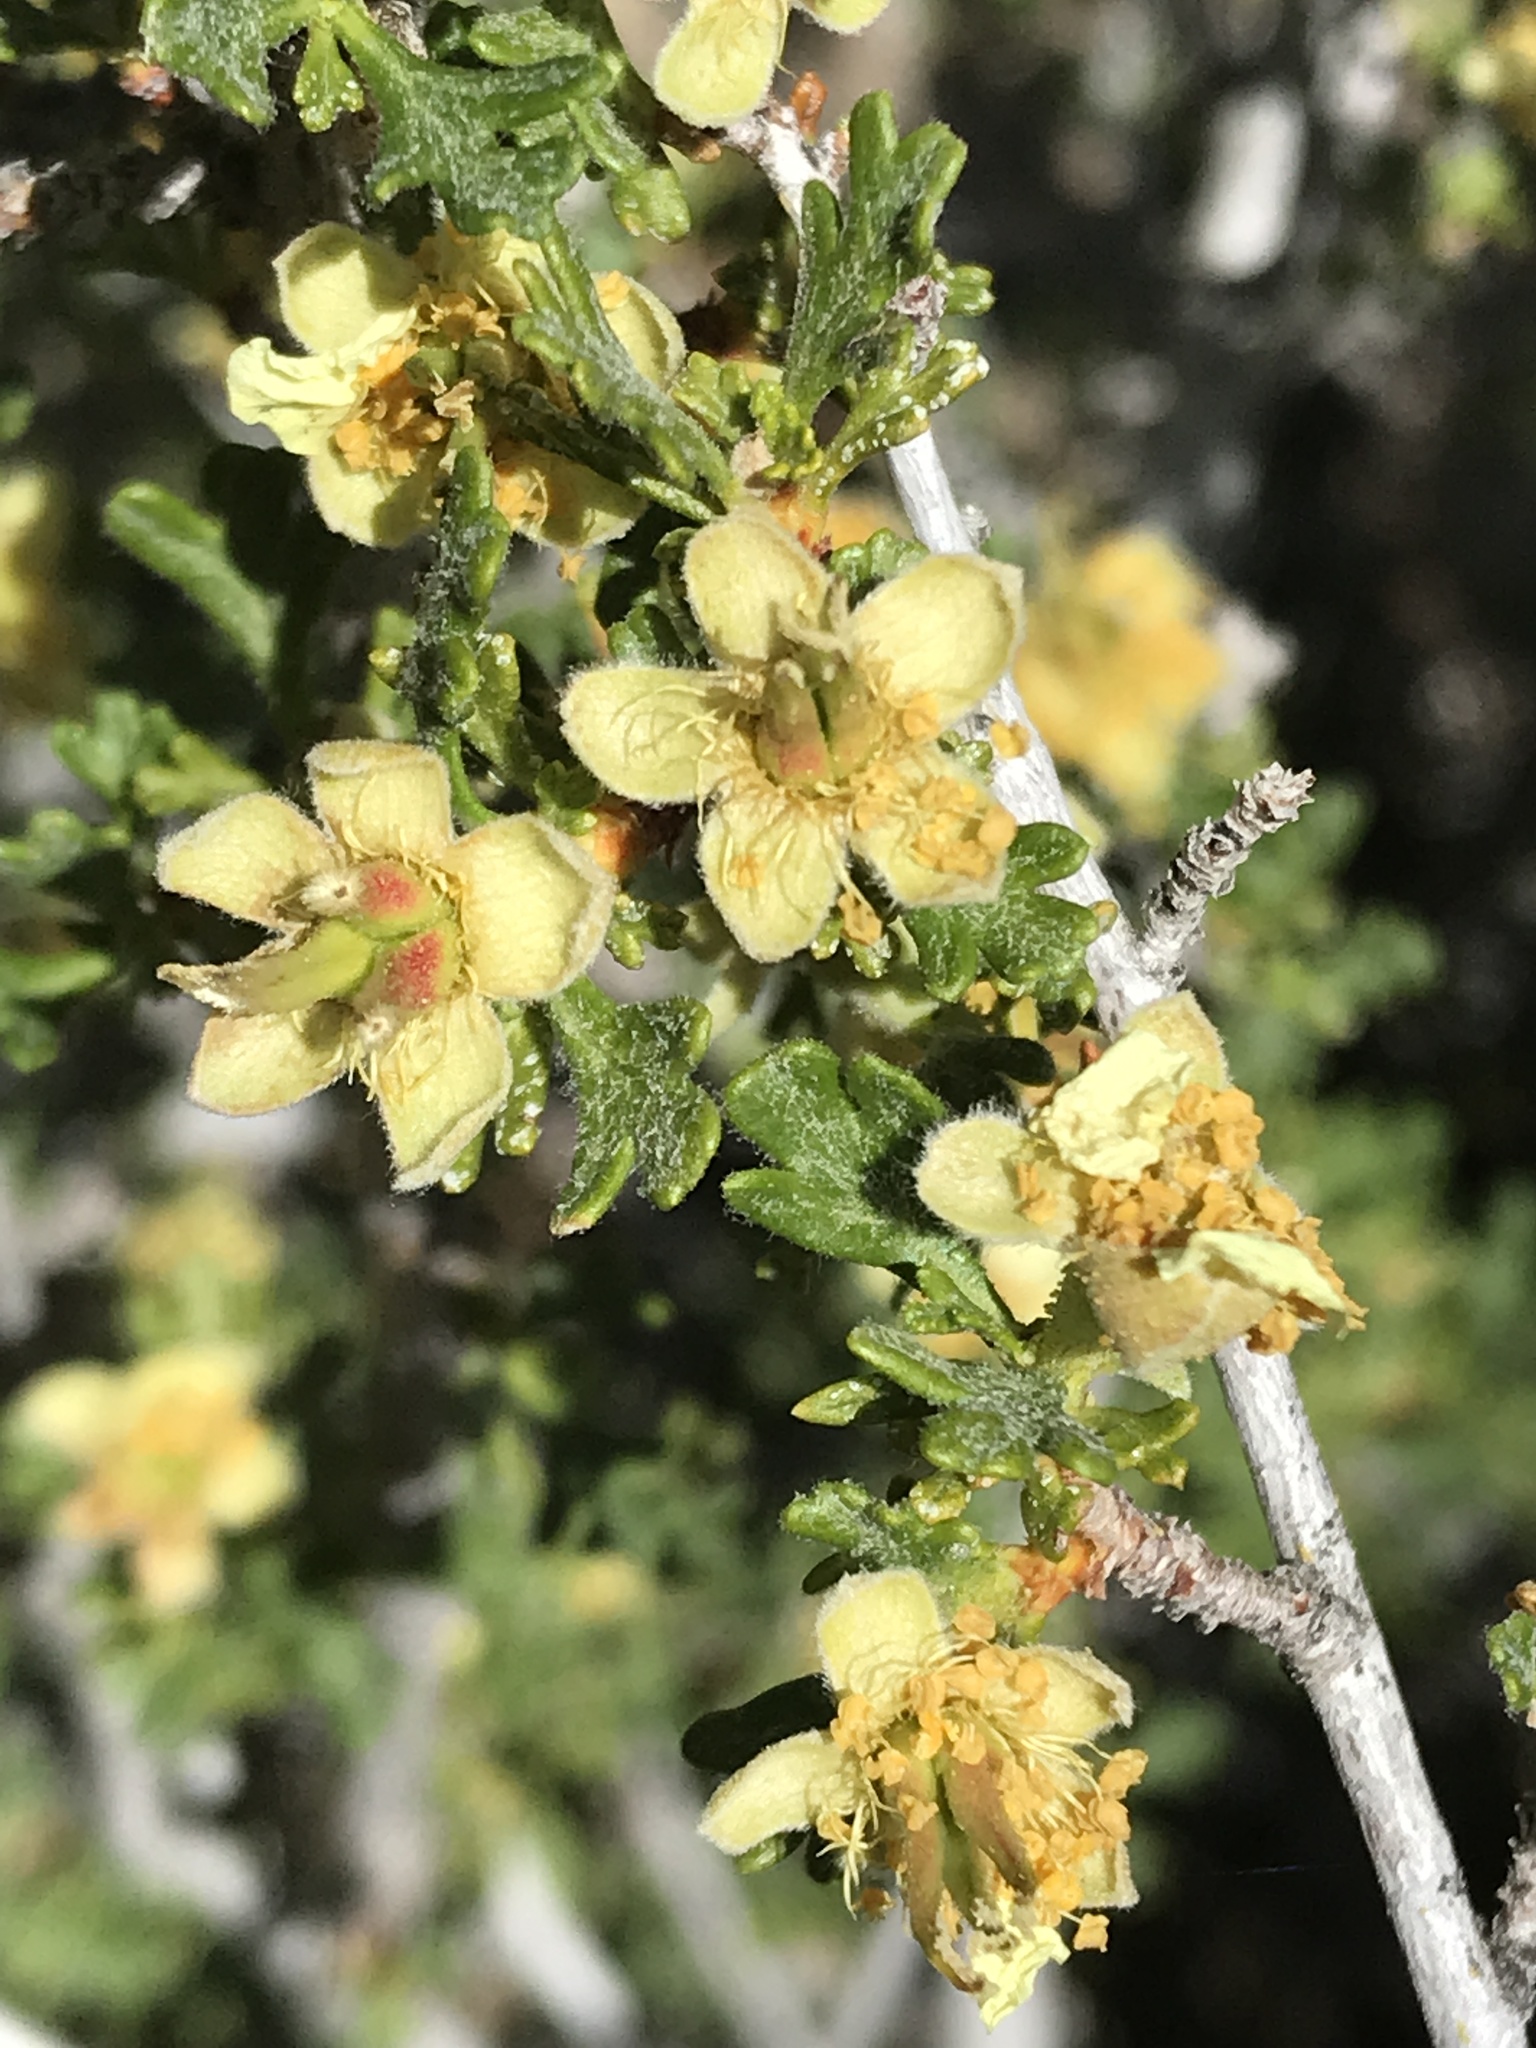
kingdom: Plantae
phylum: Tracheophyta
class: Magnoliopsida
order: Rosales
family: Rosaceae
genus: Purshia
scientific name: Purshia tridentata
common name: Antelope bitterbrush
